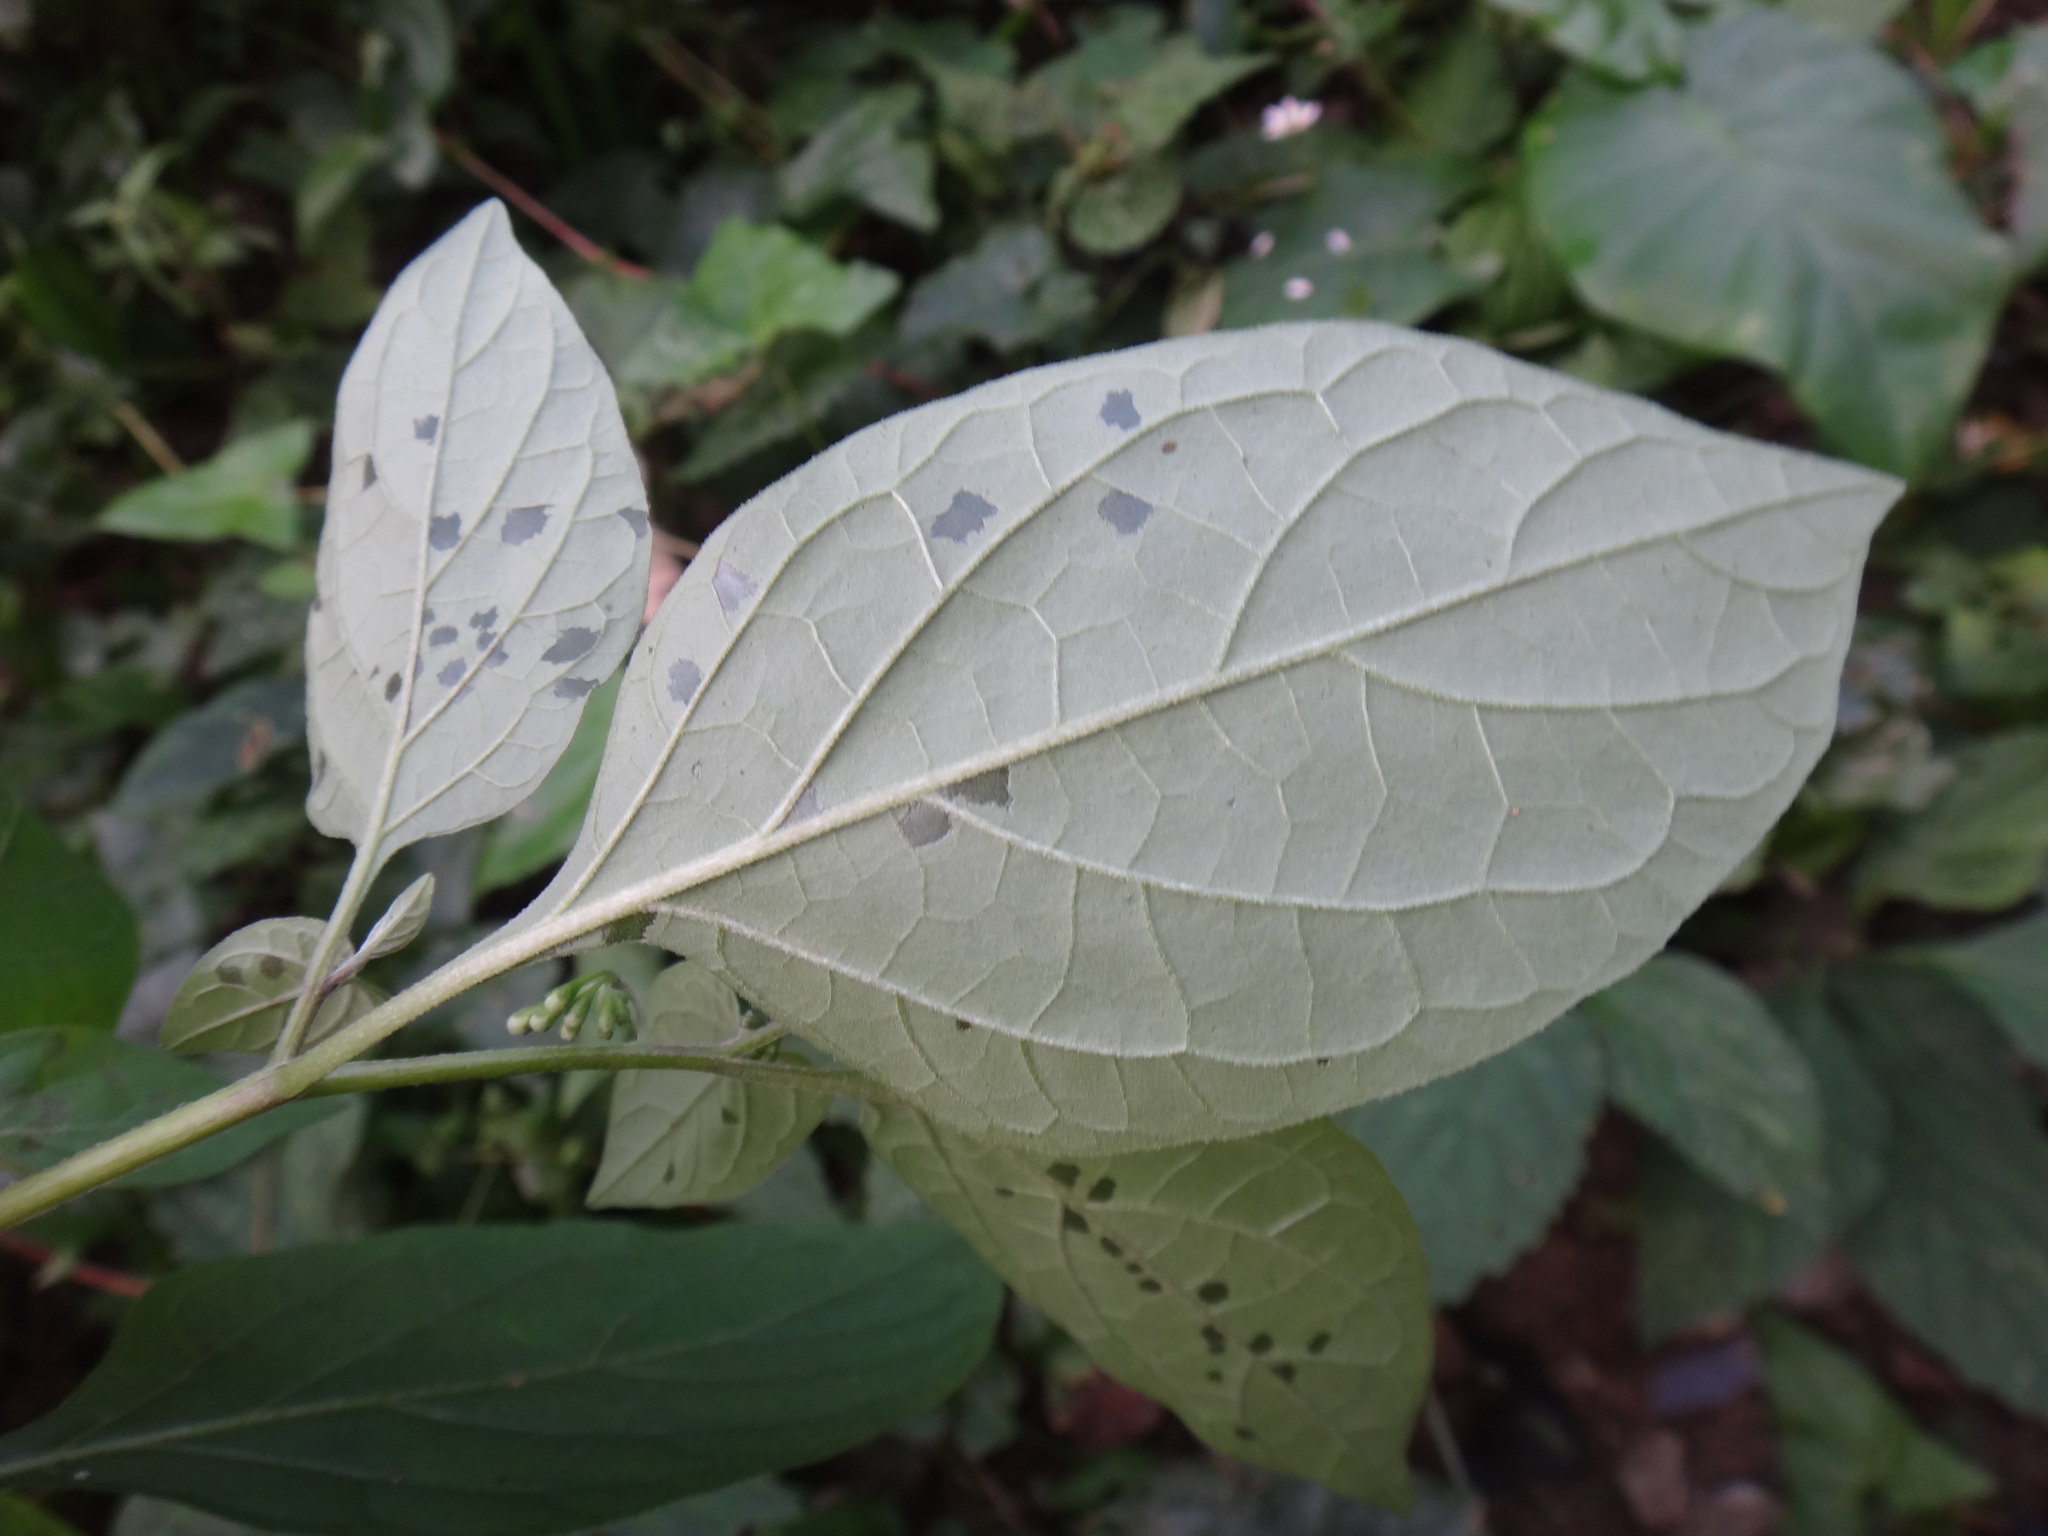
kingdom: Plantae
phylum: Tracheophyta
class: Magnoliopsida
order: Solanales
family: Solanaceae
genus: Solanum
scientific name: Solanum nigrum
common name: Black nightshade
